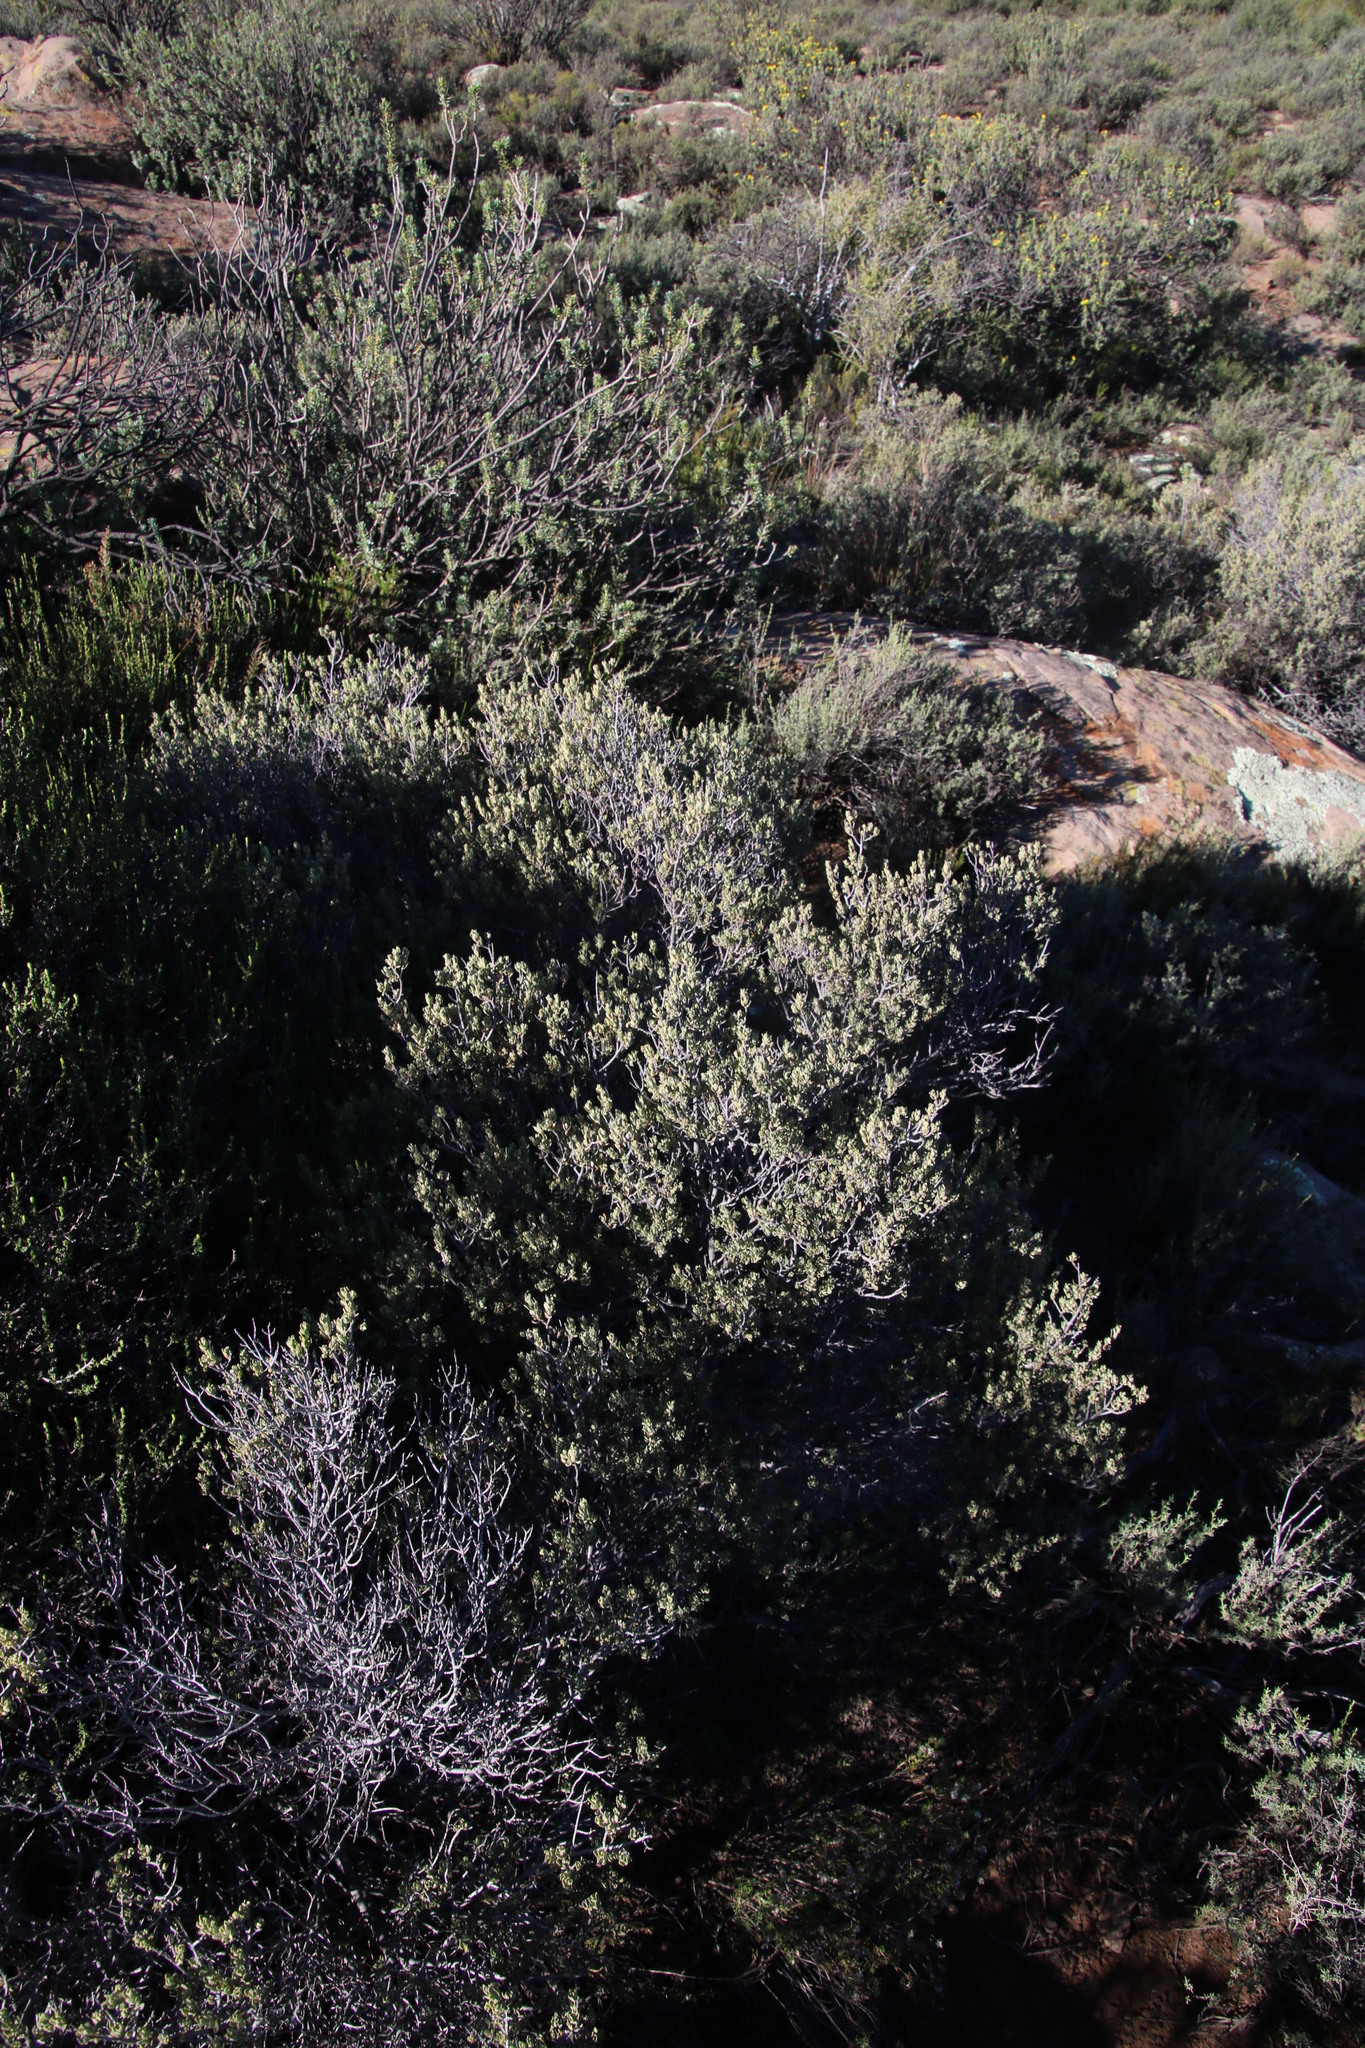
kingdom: Plantae
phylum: Tracheophyta
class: Magnoliopsida
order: Ericales
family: Ebenaceae
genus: Diospyros
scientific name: Diospyros pubescens
